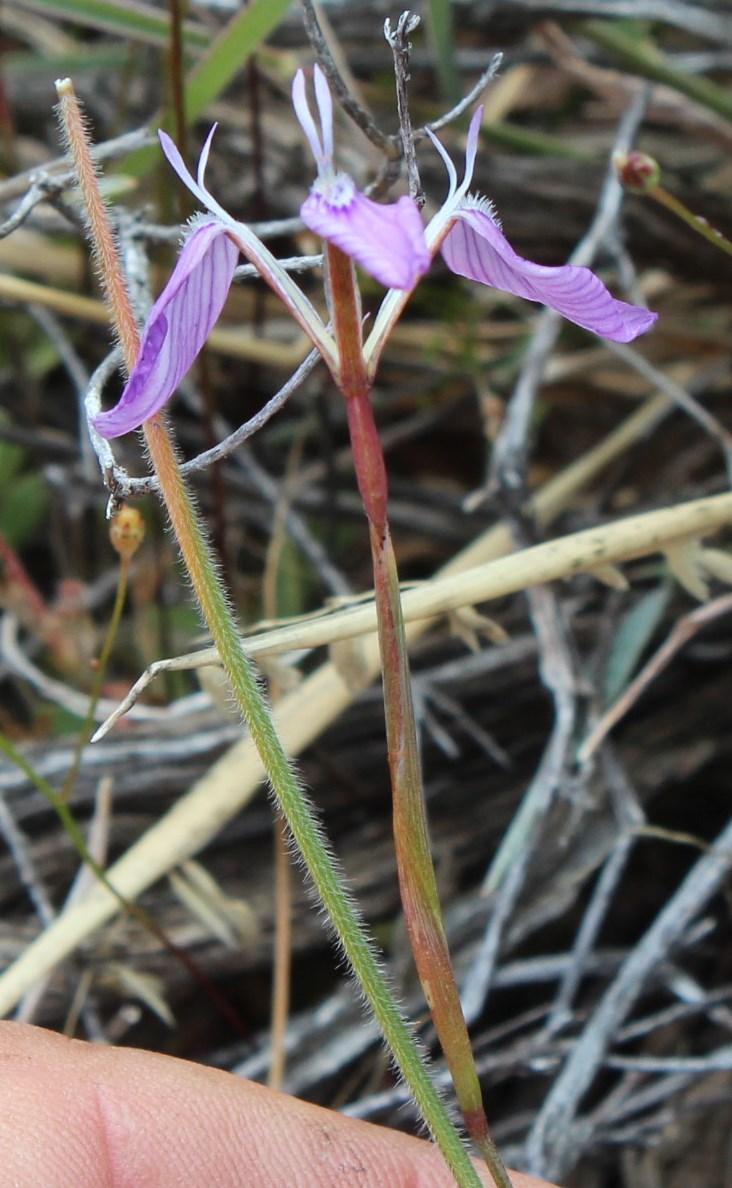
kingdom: Plantae
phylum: Tracheophyta
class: Liliopsida
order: Asparagales
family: Iridaceae
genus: Moraea
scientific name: Moraea amabilis
